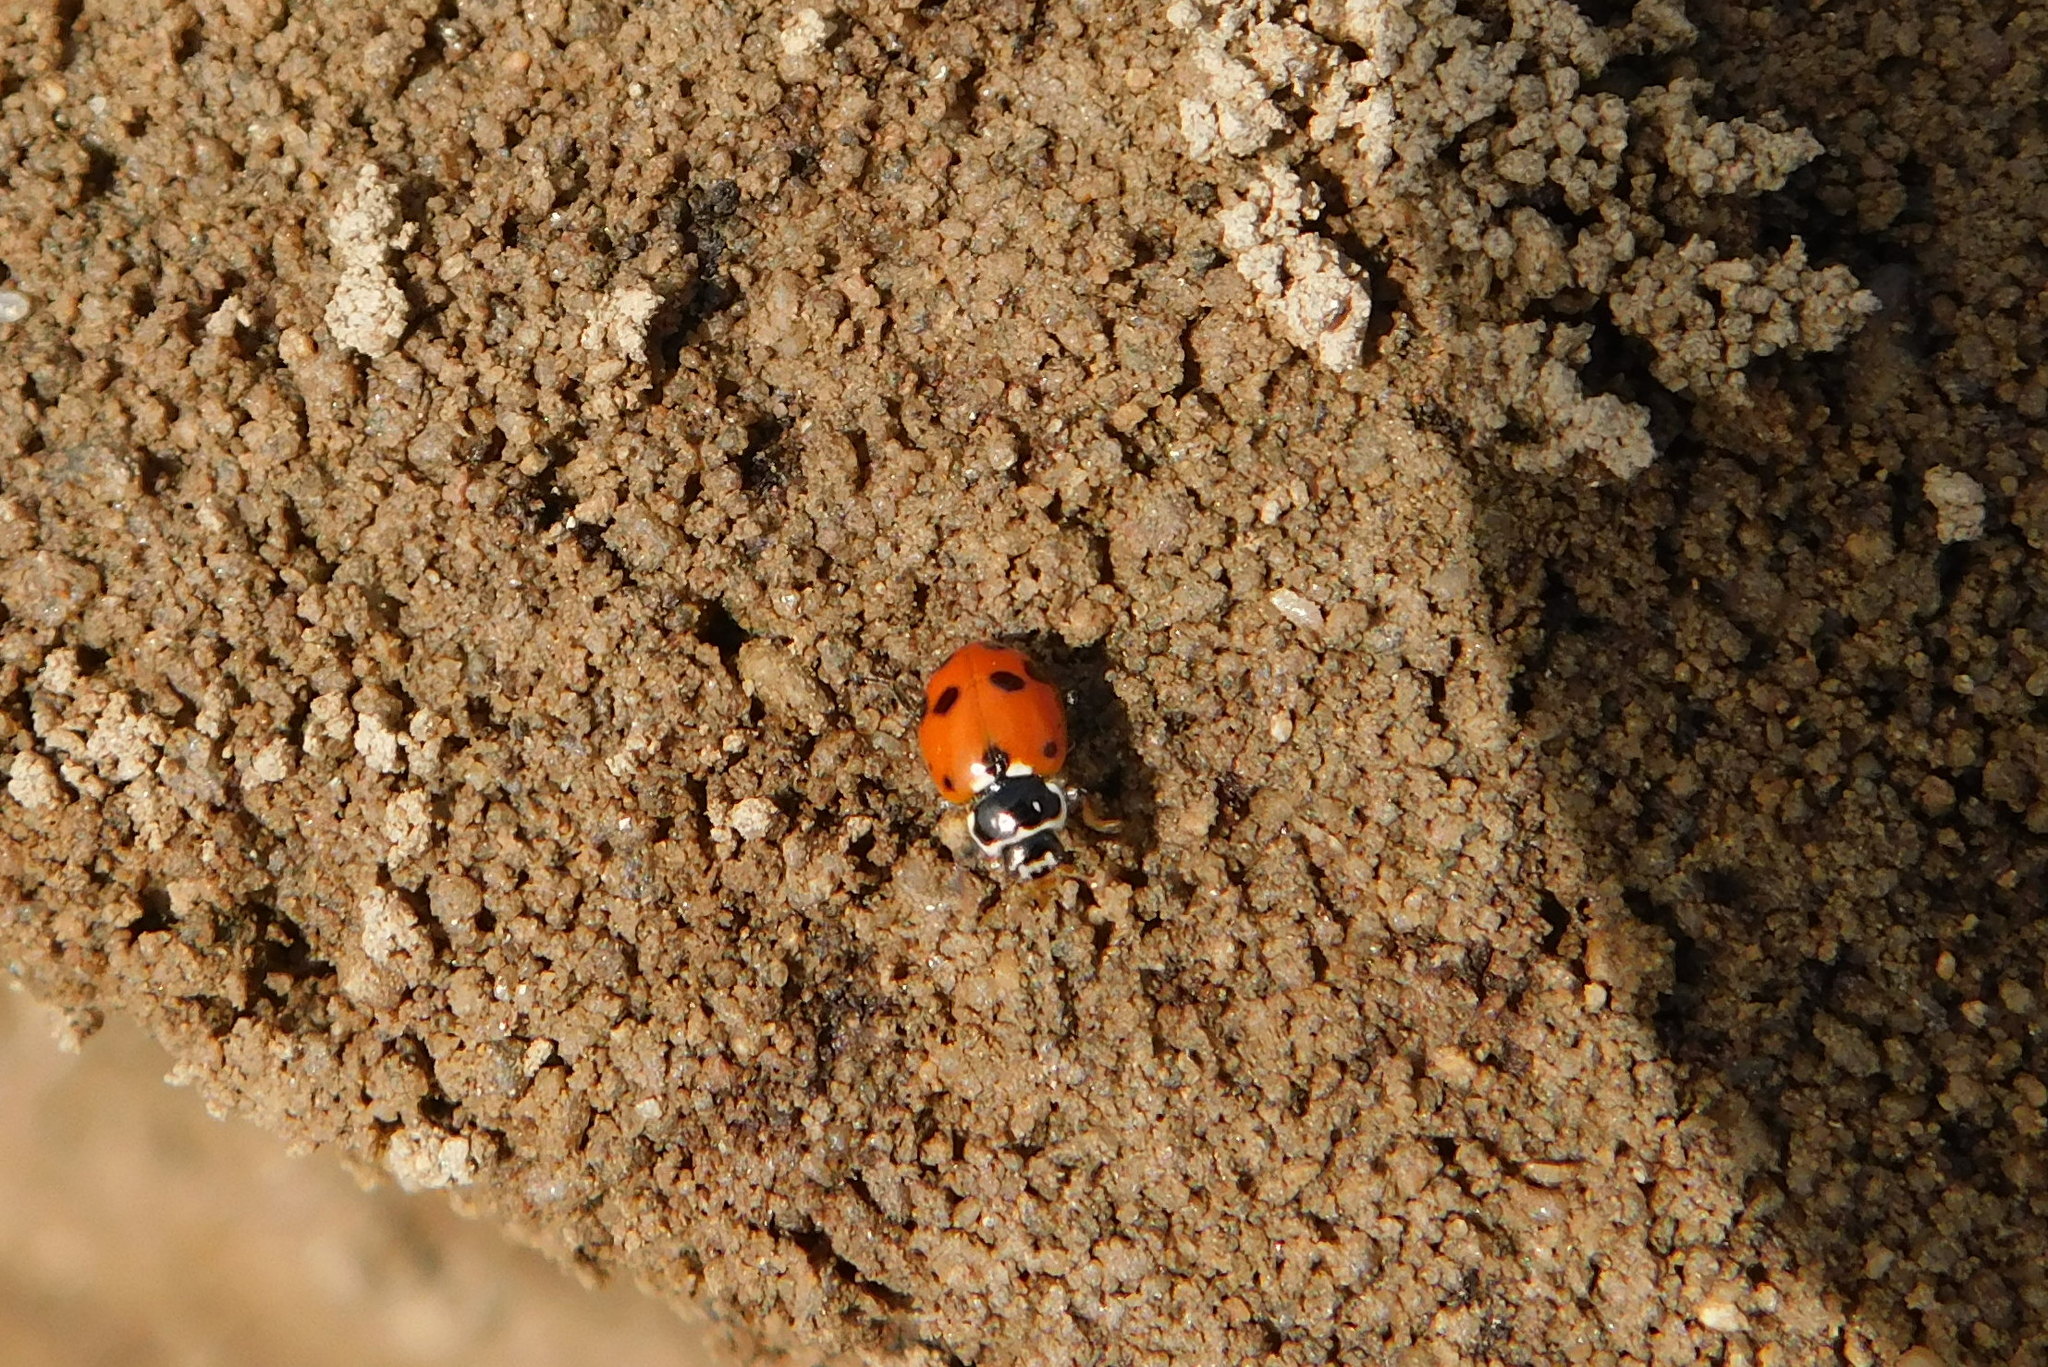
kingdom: Animalia
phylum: Arthropoda
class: Insecta
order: Coleoptera
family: Coccinellidae
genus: Hippodamia
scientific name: Hippodamia variegata
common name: Ladybird beetle
